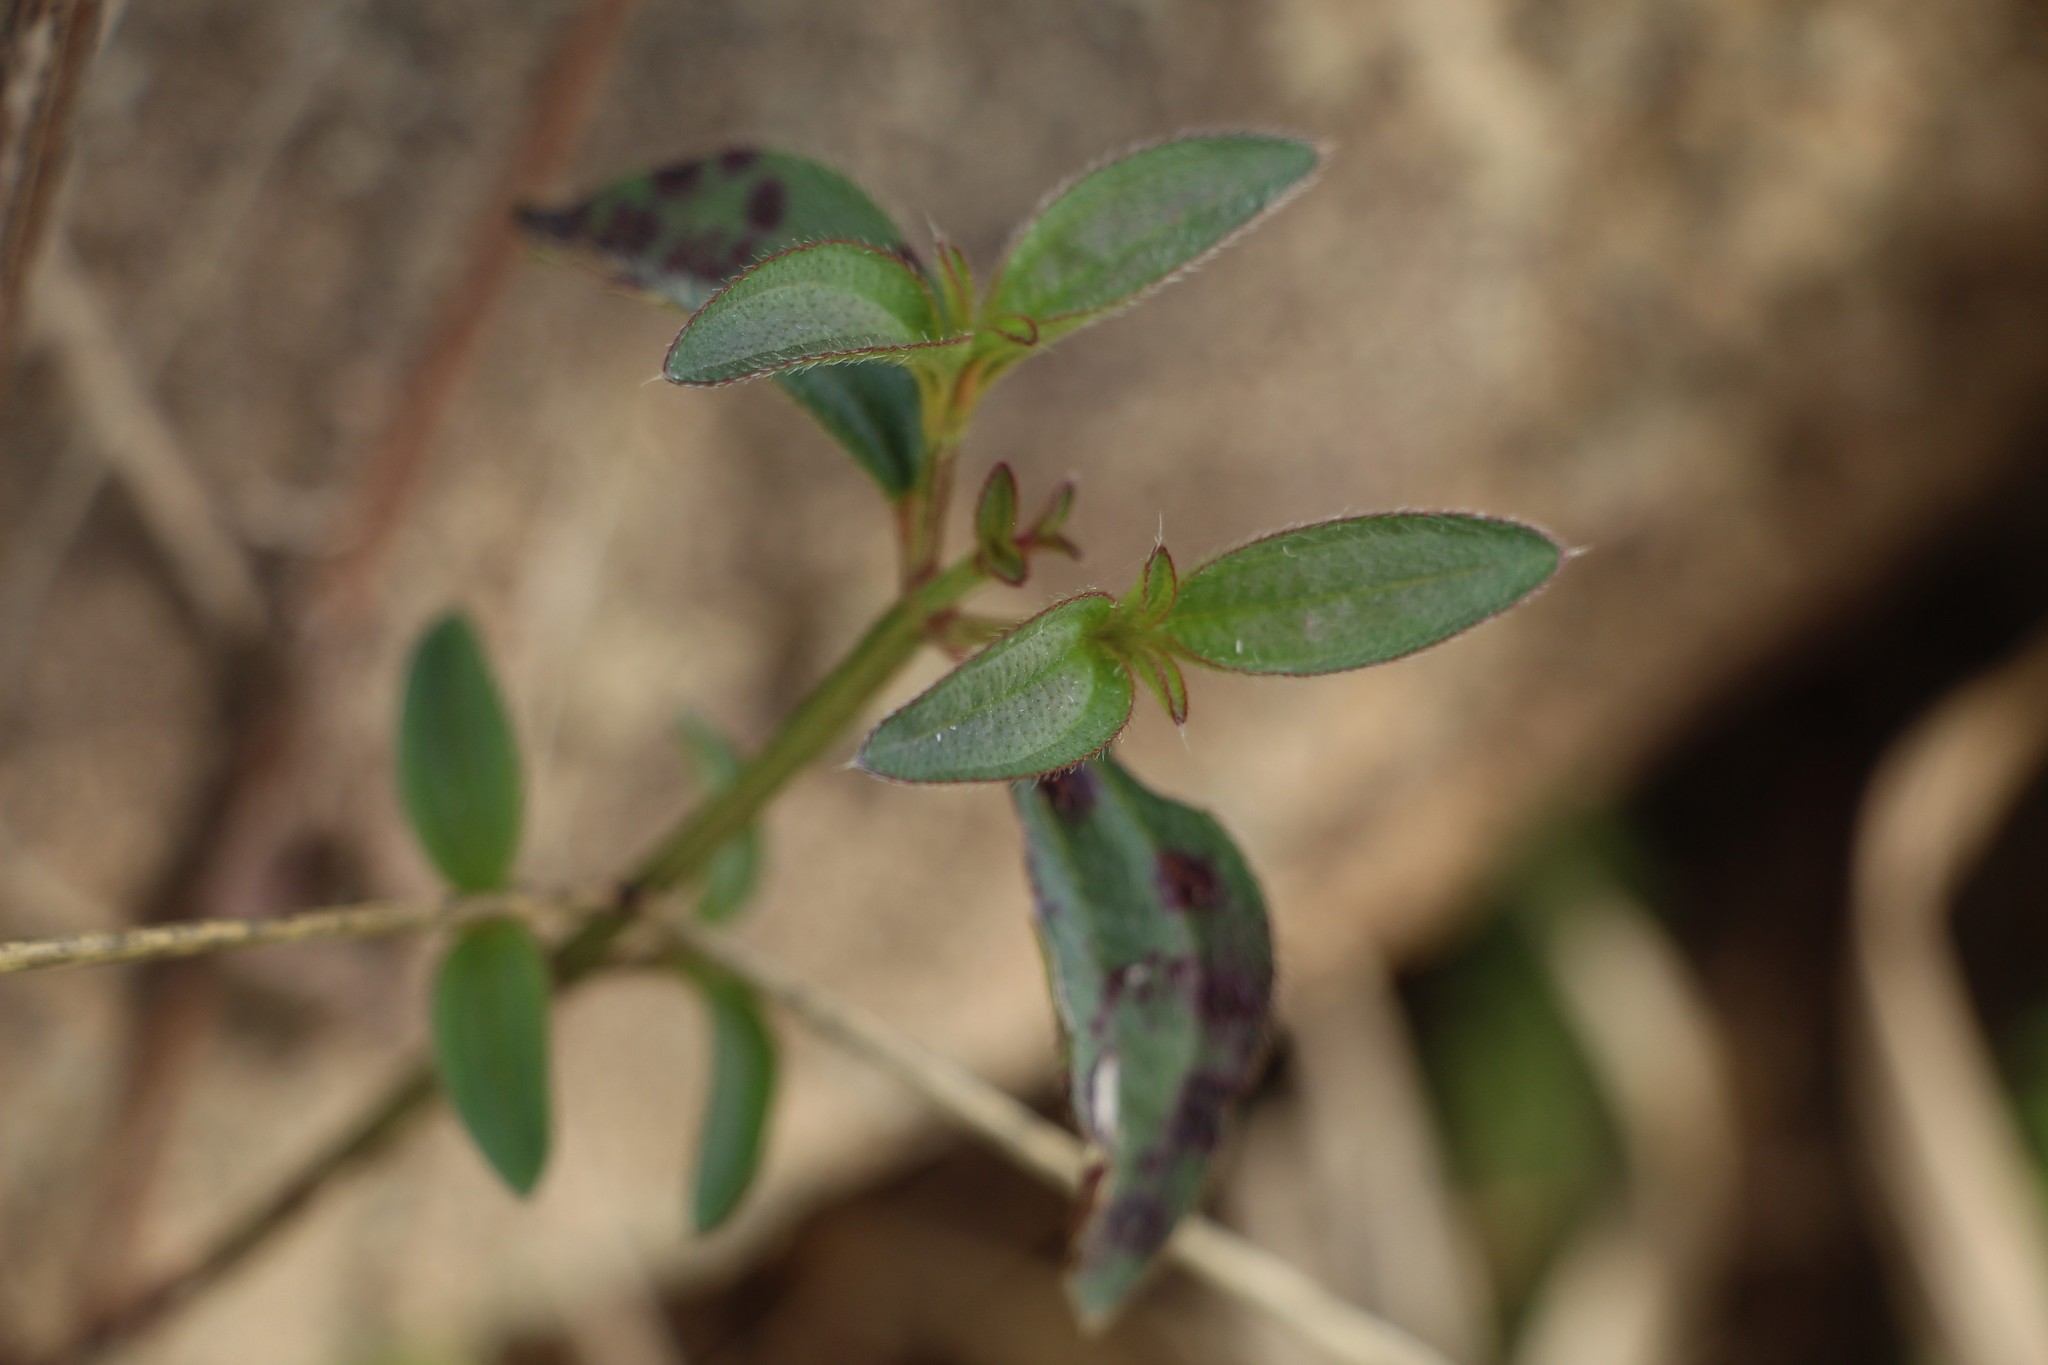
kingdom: Plantae
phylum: Tracheophyta
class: Magnoliopsida
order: Myrtales
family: Melastomataceae
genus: Pterogastra
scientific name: Pterogastra divaricata
